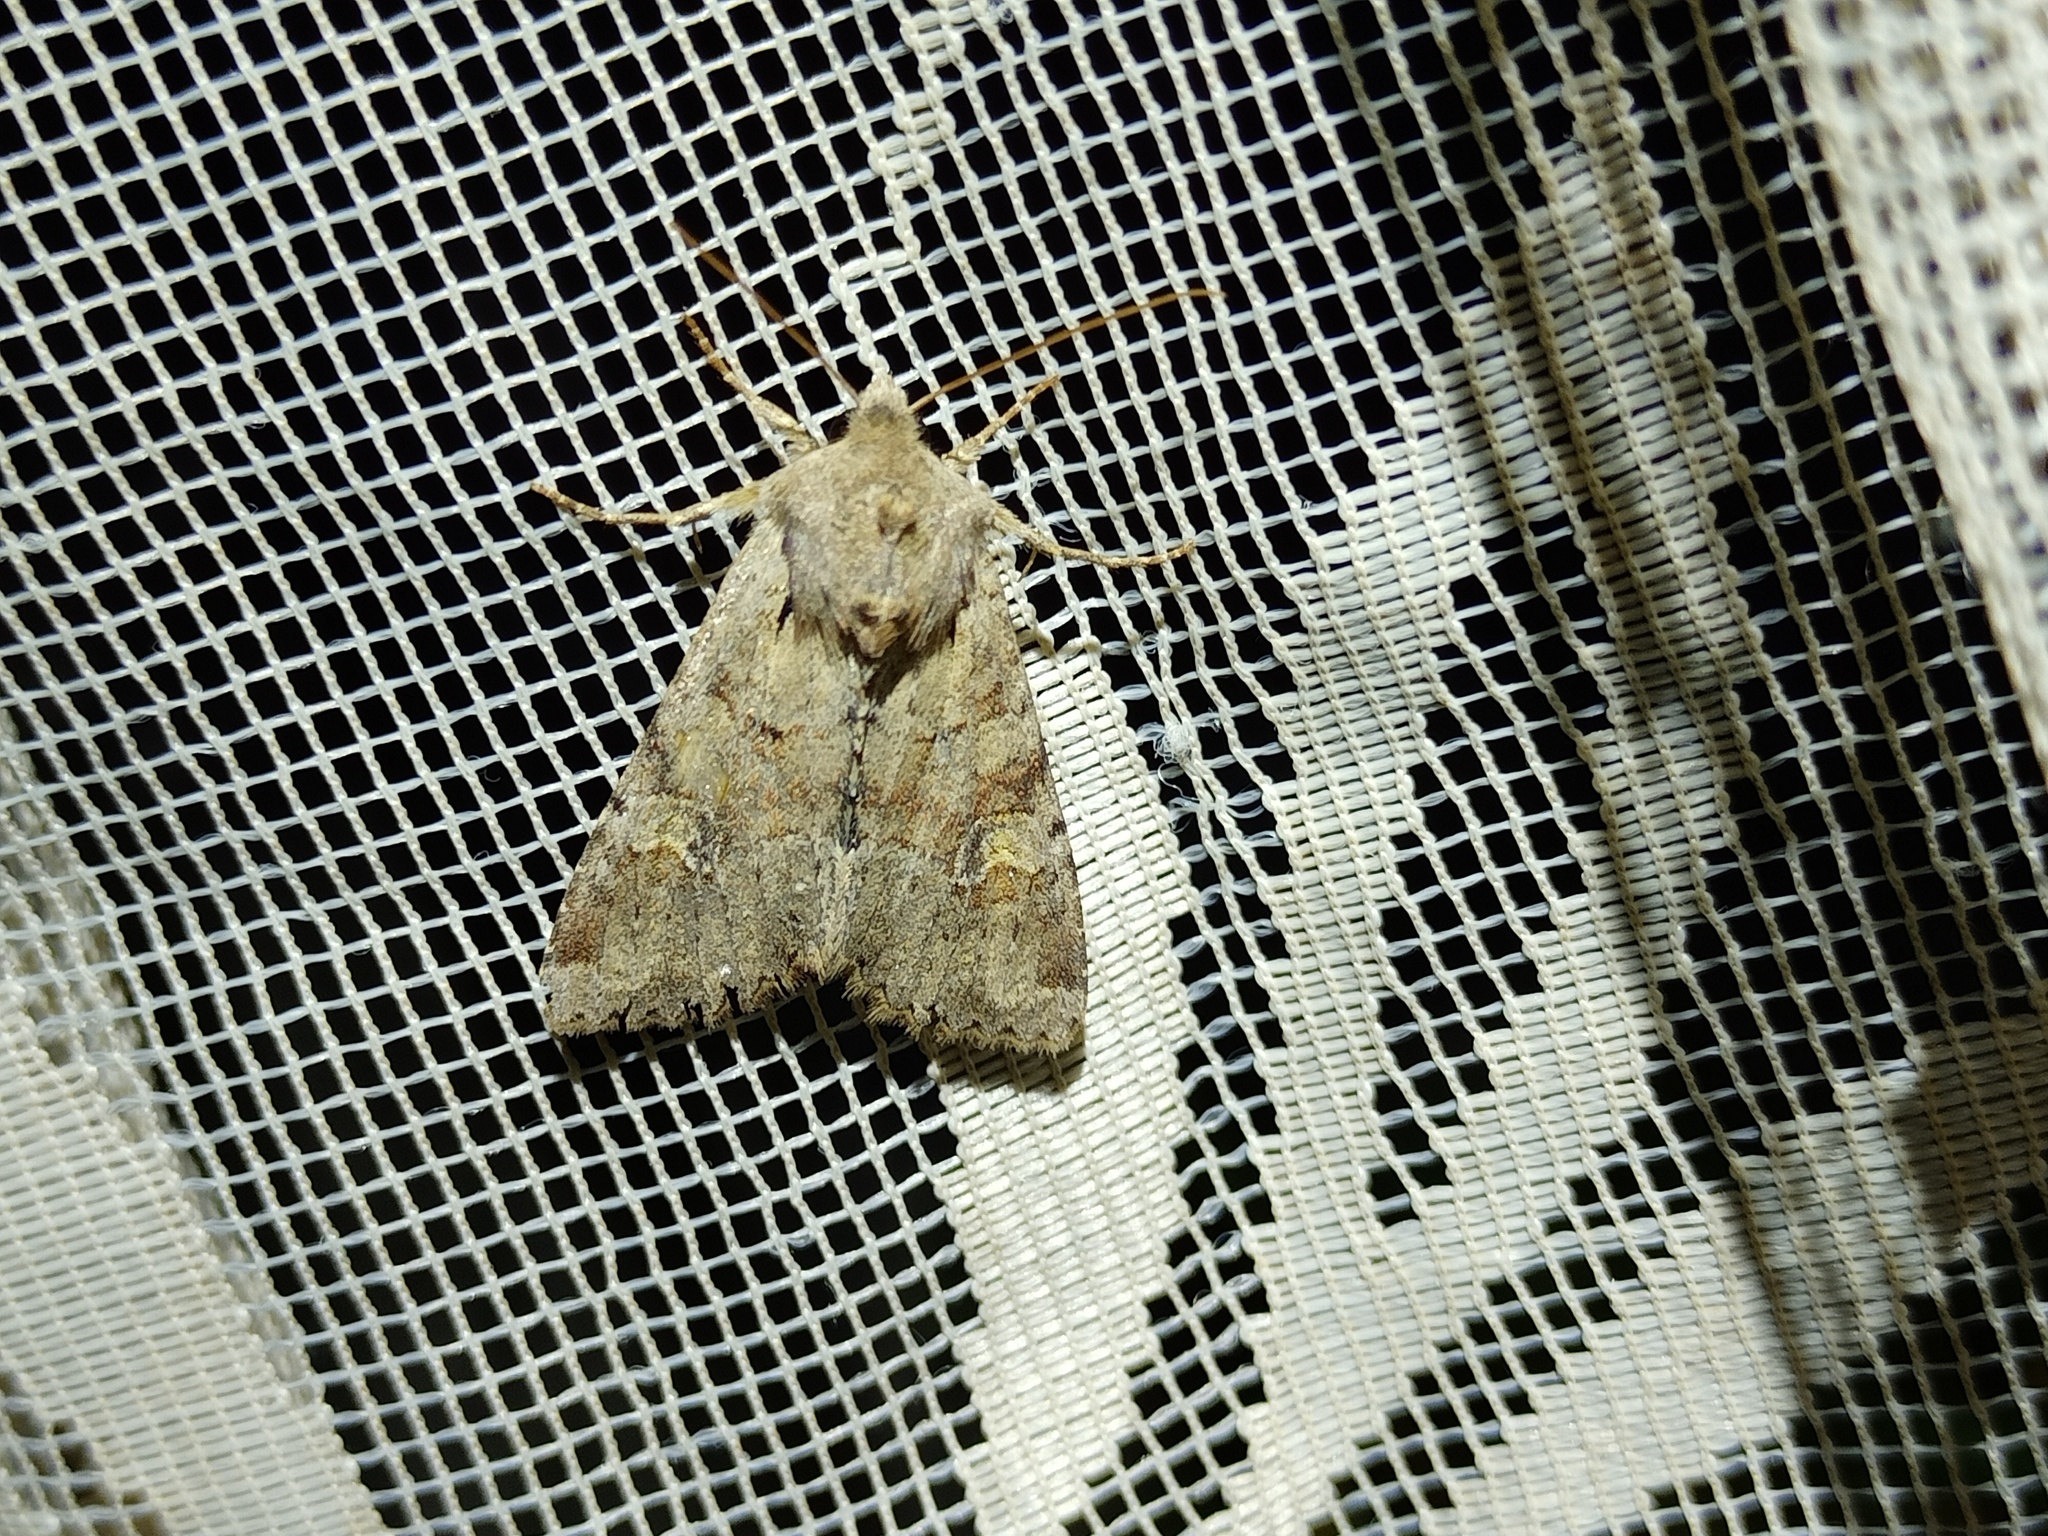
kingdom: Animalia
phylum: Arthropoda
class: Insecta
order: Lepidoptera
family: Noctuidae
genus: Apamea
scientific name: Apamea sordens
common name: Rustic shoulder-knot
